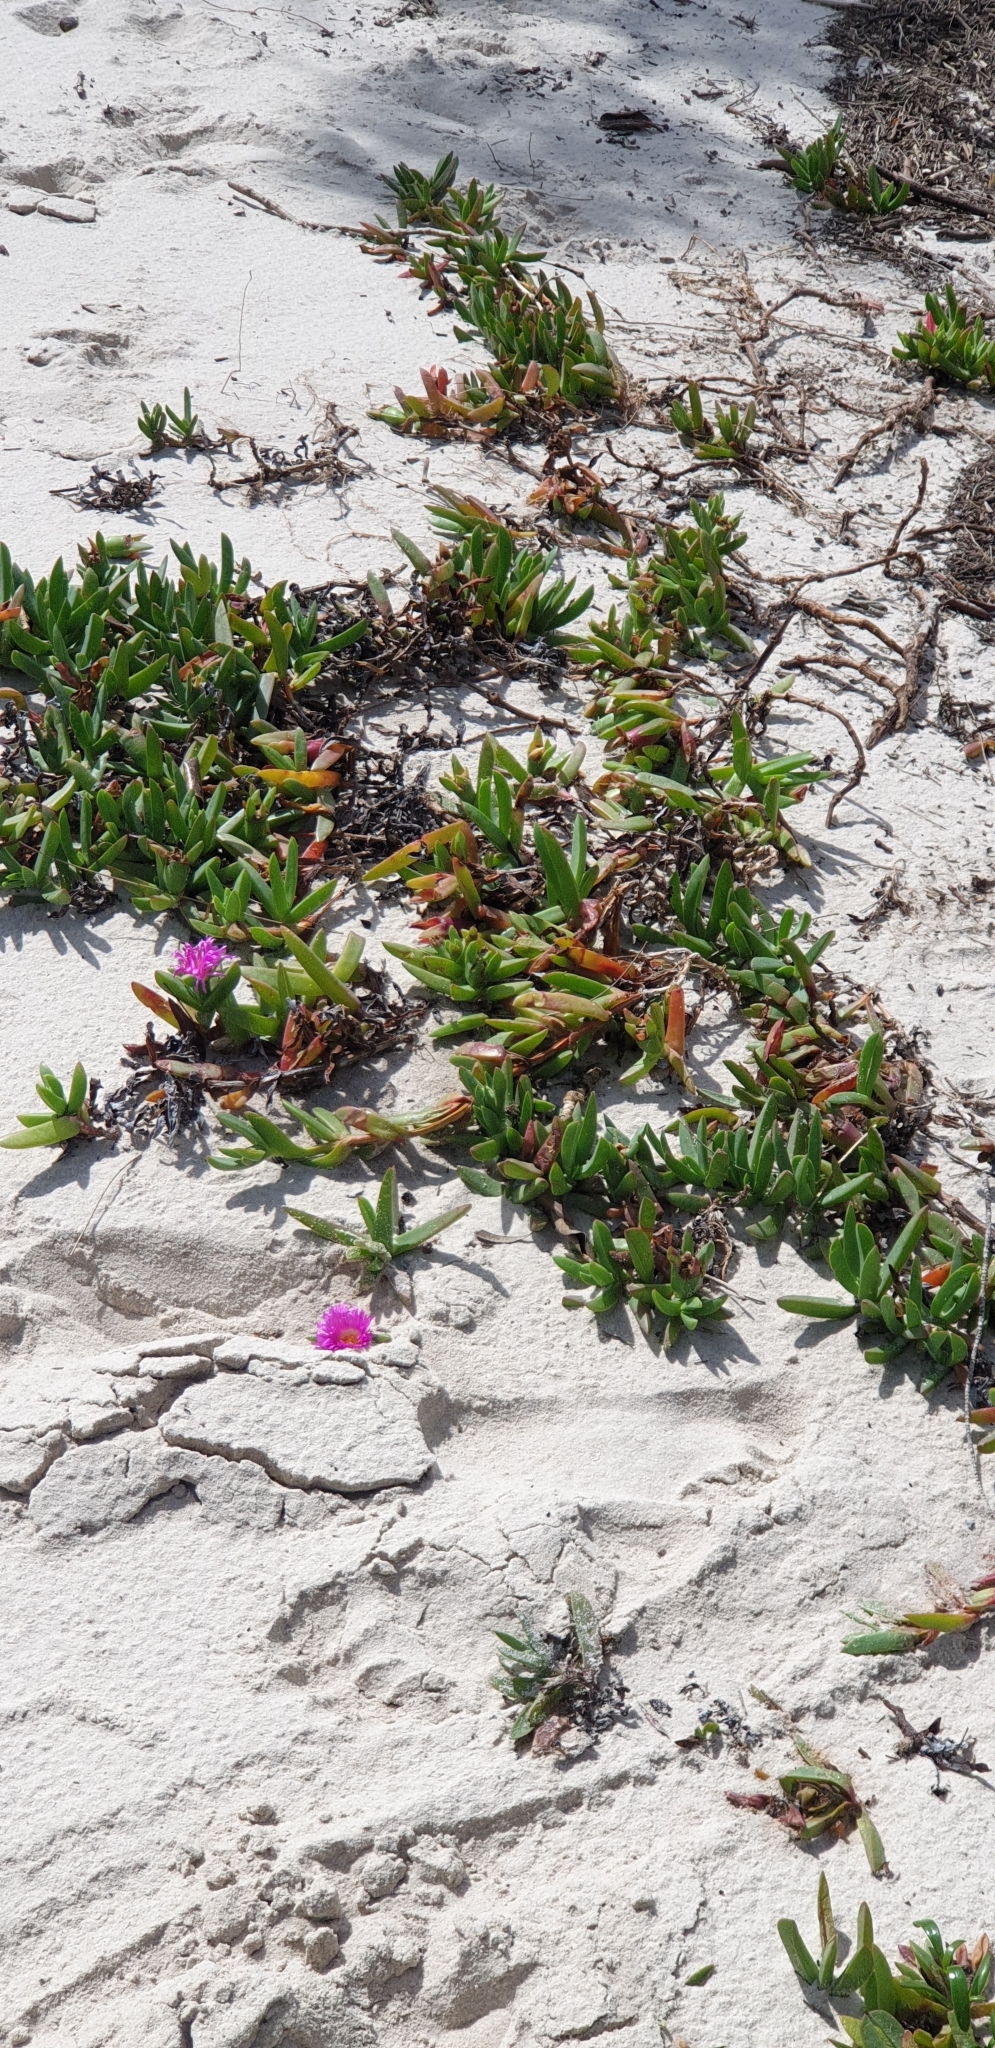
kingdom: Plantae
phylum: Tracheophyta
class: Magnoliopsida
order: Caryophyllales
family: Aizoaceae
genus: Carpobrotus
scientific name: Carpobrotus glaucescens
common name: Angular sea-fig
